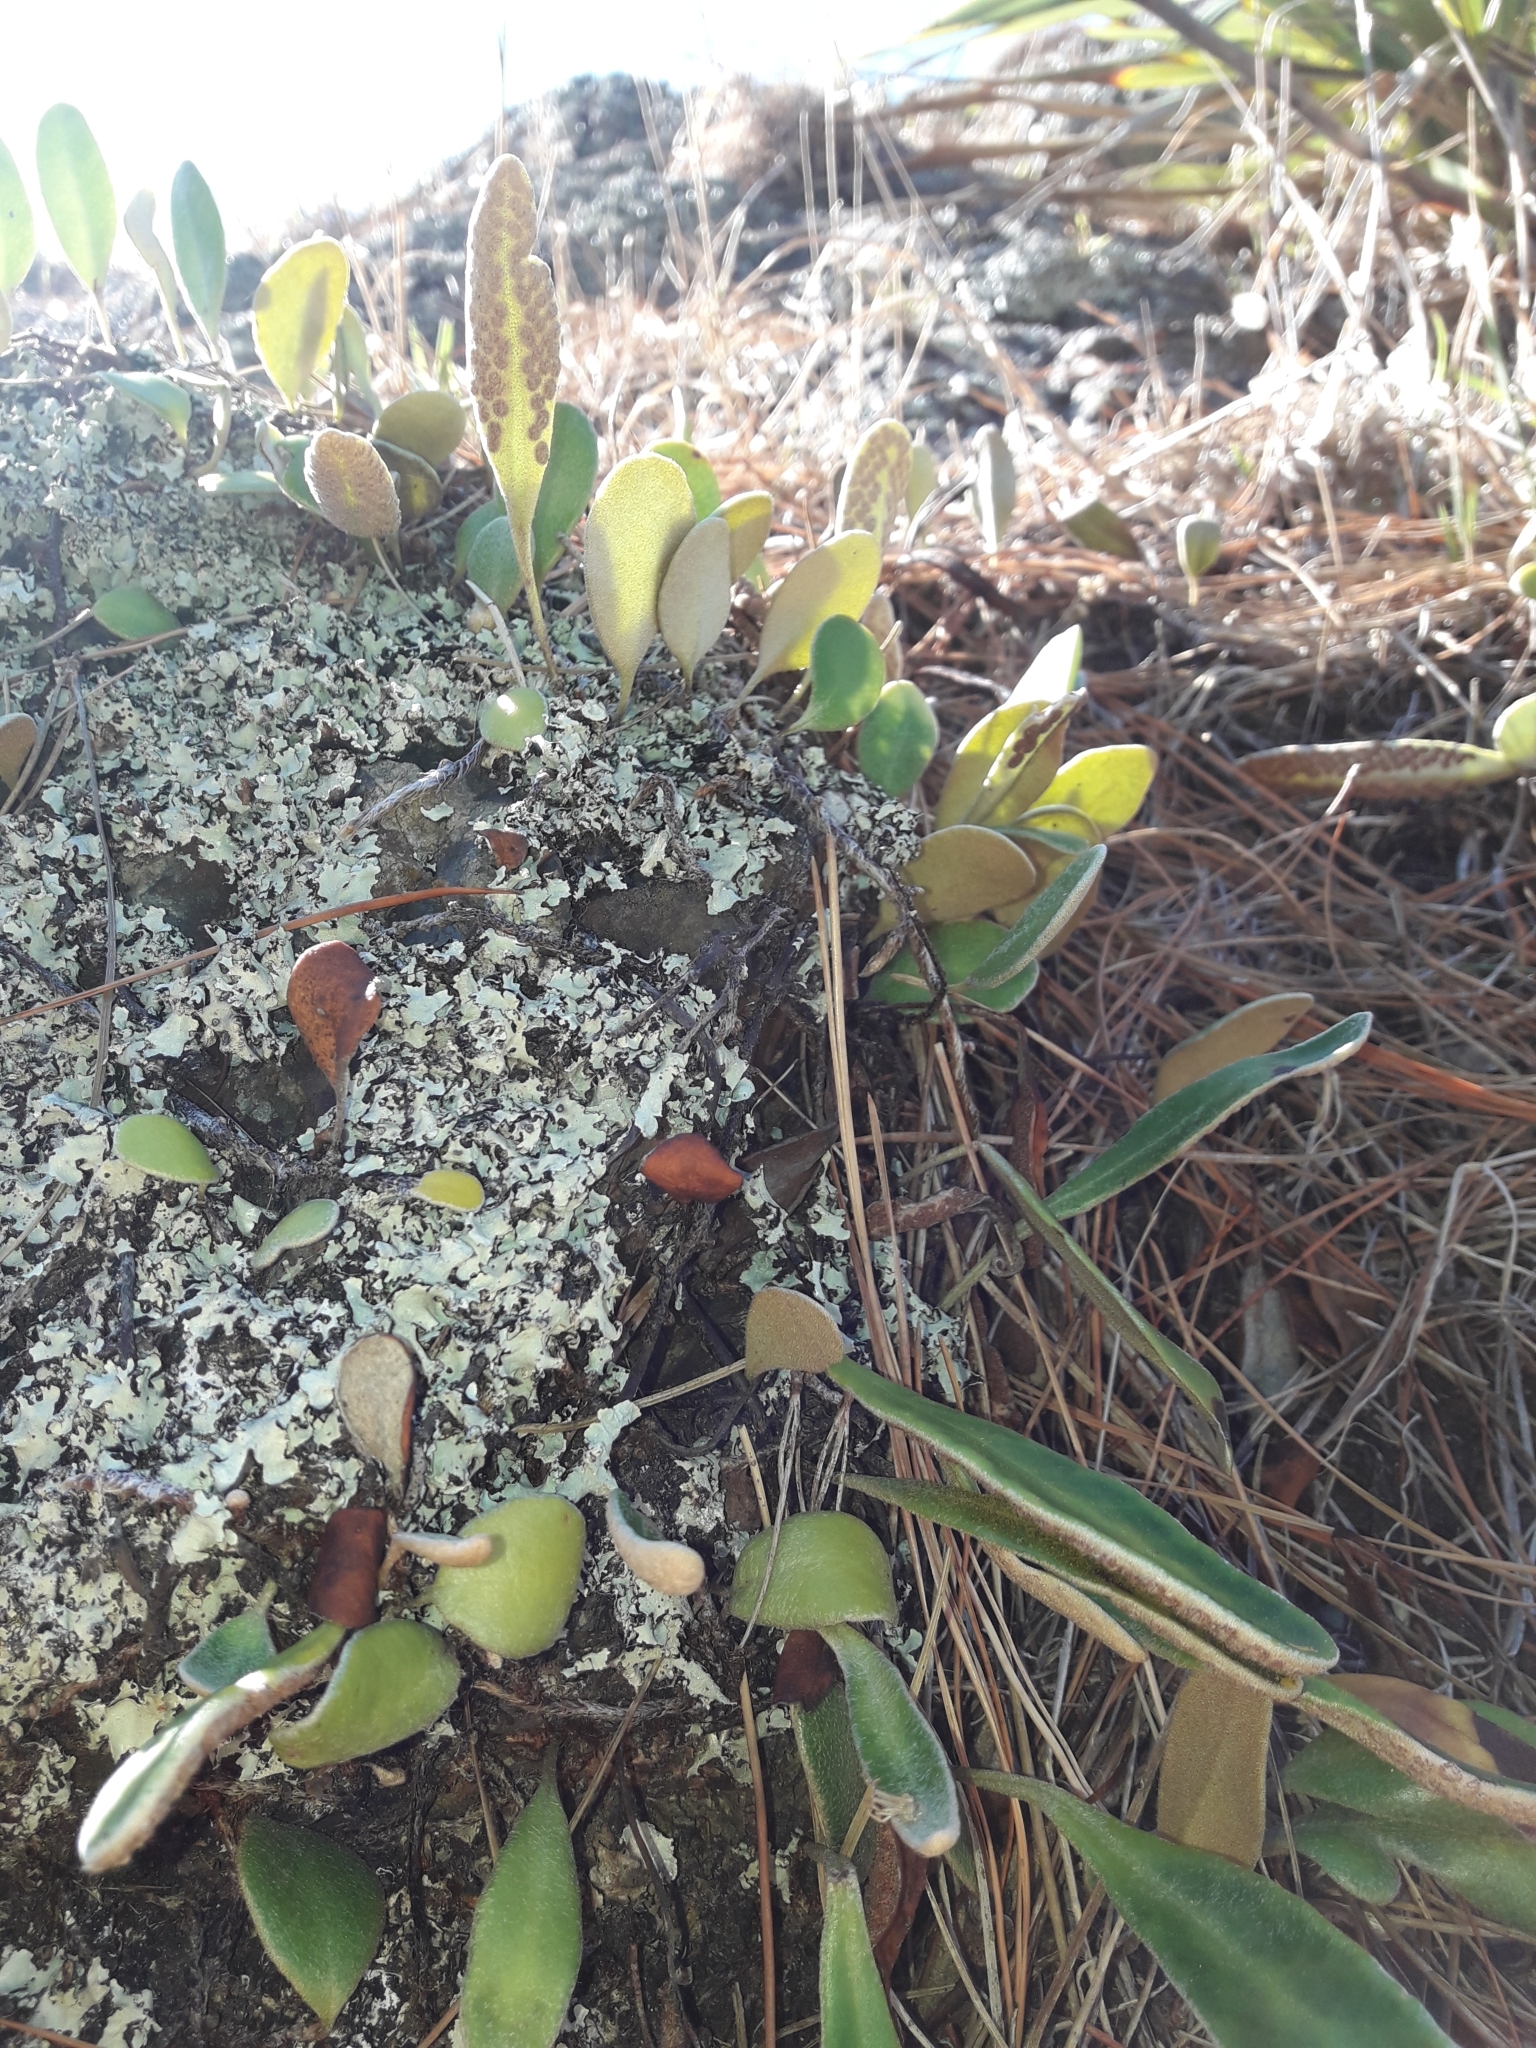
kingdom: Plantae
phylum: Tracheophyta
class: Polypodiopsida
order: Polypodiales
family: Polypodiaceae
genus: Pyrrosia
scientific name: Pyrrosia eleagnifolia
